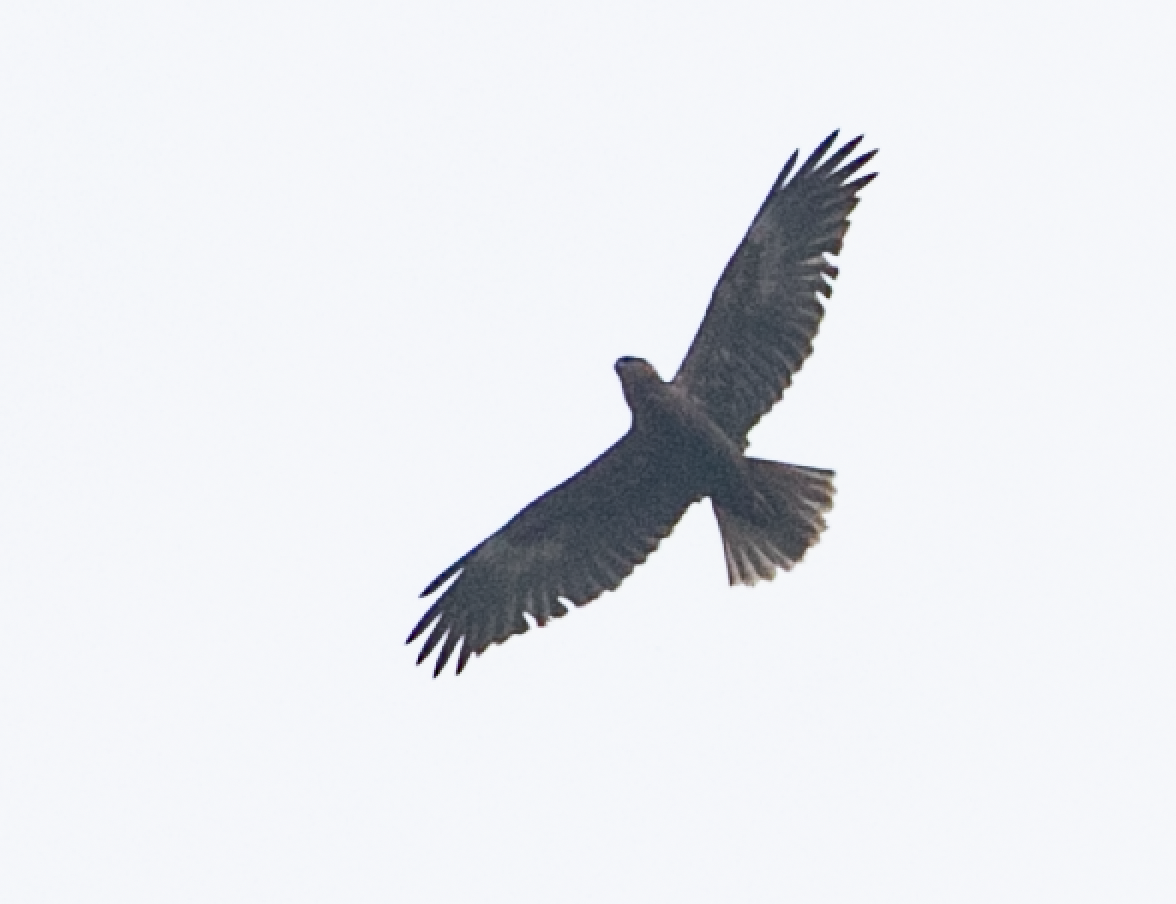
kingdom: Animalia
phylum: Chordata
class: Aves
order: Accipitriformes
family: Accipitridae
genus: Circus
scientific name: Circus aeruginosus
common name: Western marsh harrier
